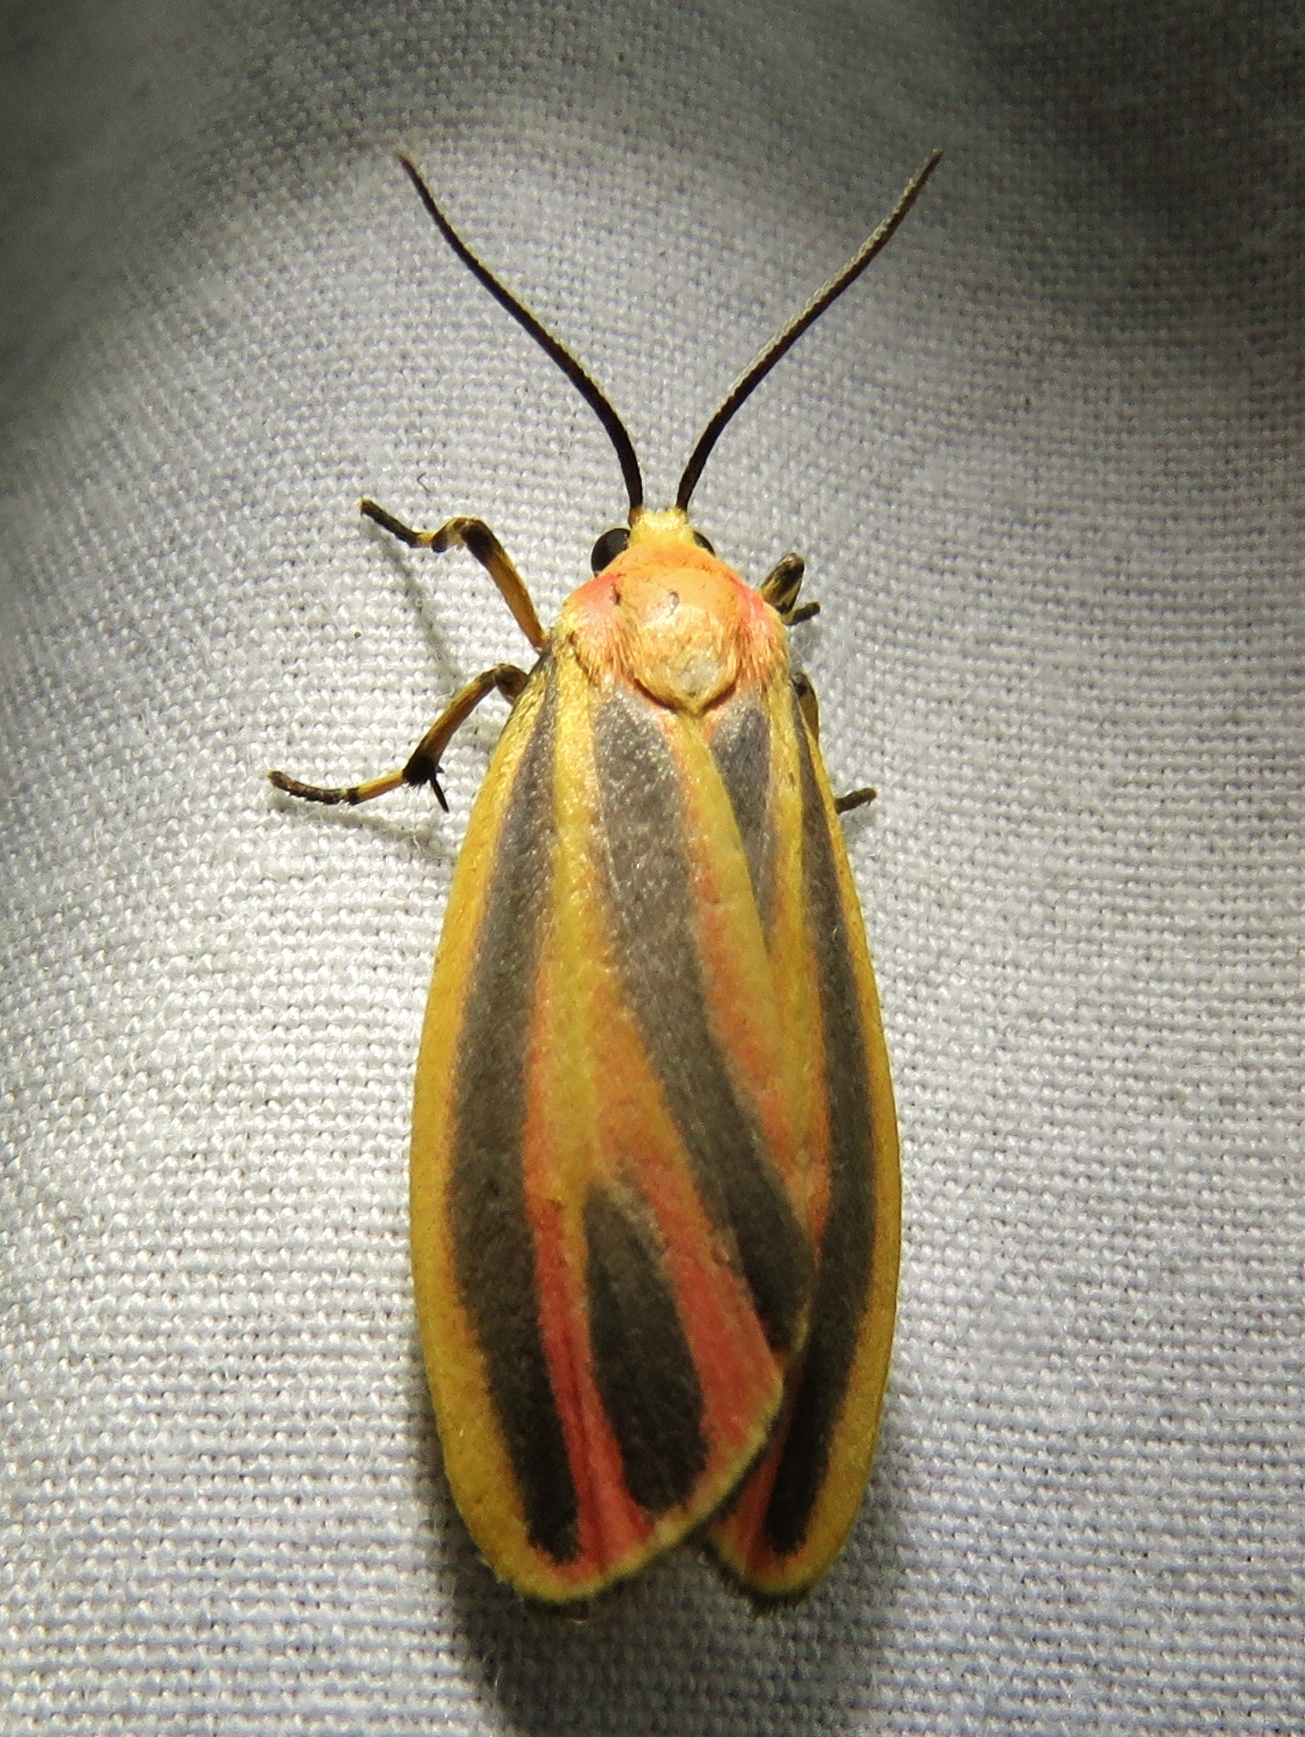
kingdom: Animalia
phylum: Arthropoda
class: Insecta
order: Lepidoptera
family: Erebidae
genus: Hypoprepia
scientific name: Hypoprepia fucosa
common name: Painted lichen moth
